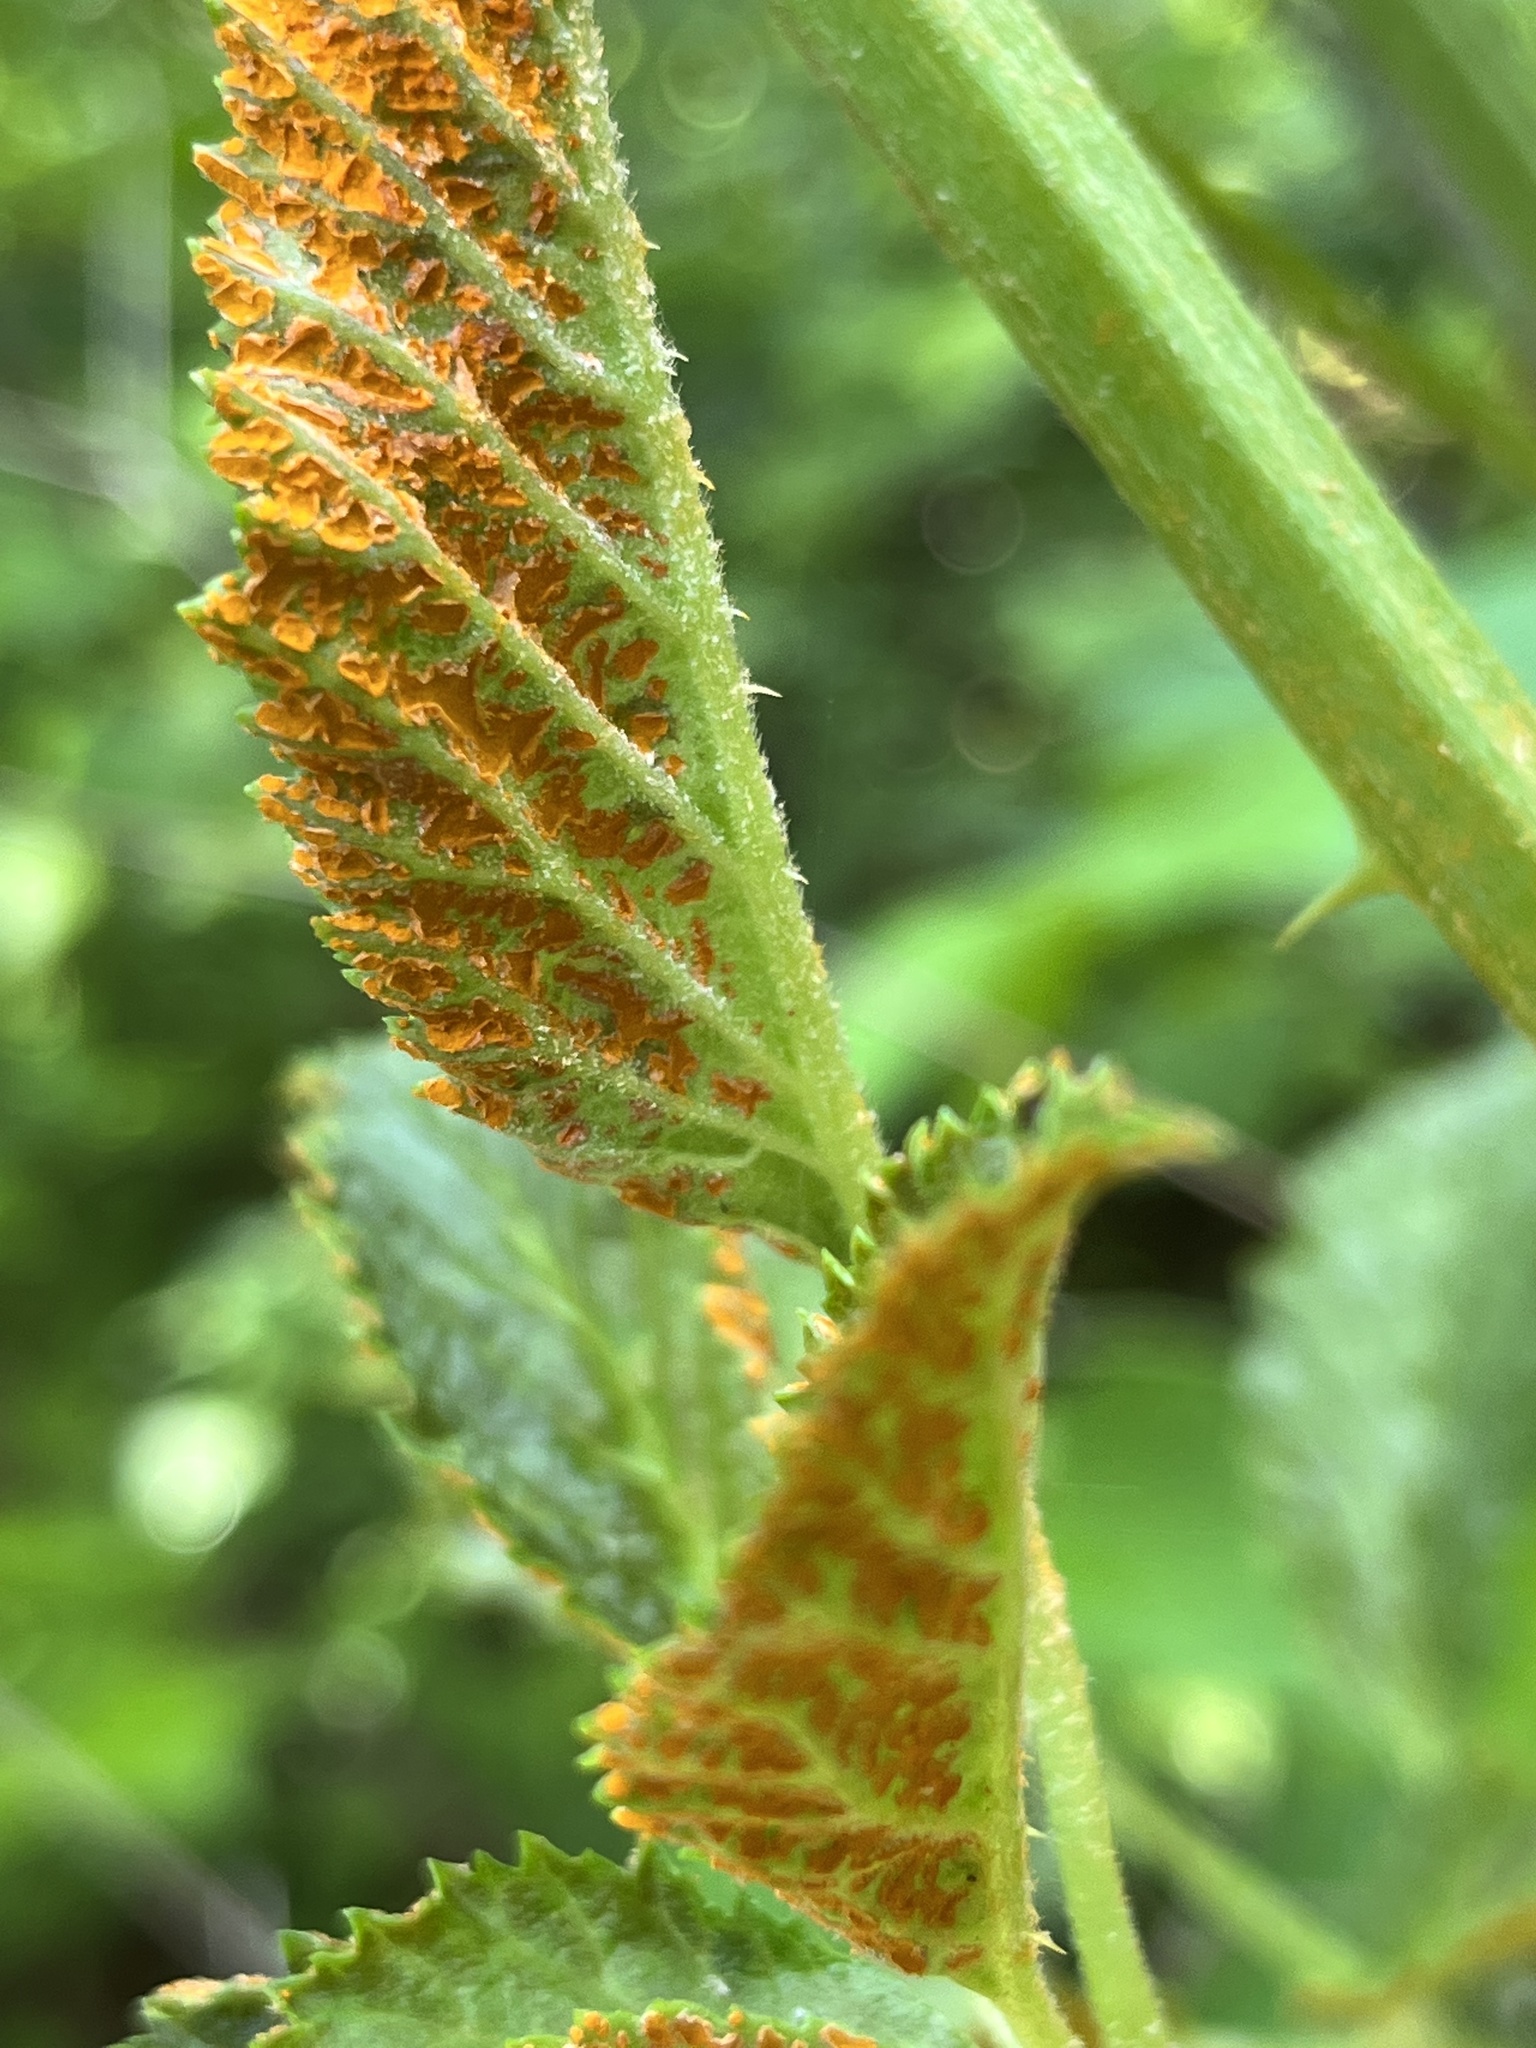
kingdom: Fungi
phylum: Basidiomycota
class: Pucciniomycetes
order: Pucciniales
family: Phragmidiaceae
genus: Arthuriomyces
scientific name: Arthuriomyces peckianus
